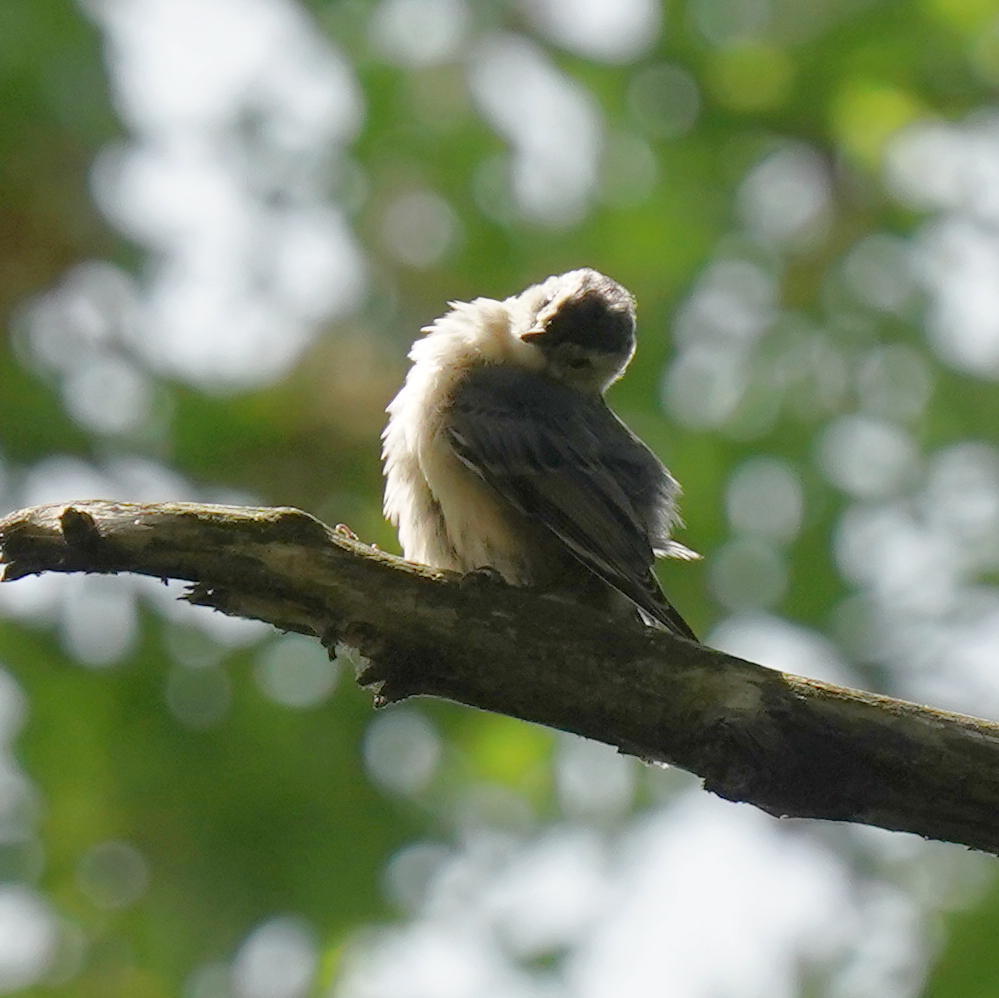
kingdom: Animalia
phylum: Chordata
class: Aves
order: Passeriformes
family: Sittidae
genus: Sitta
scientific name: Sitta carolinensis
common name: White-breasted nuthatch
